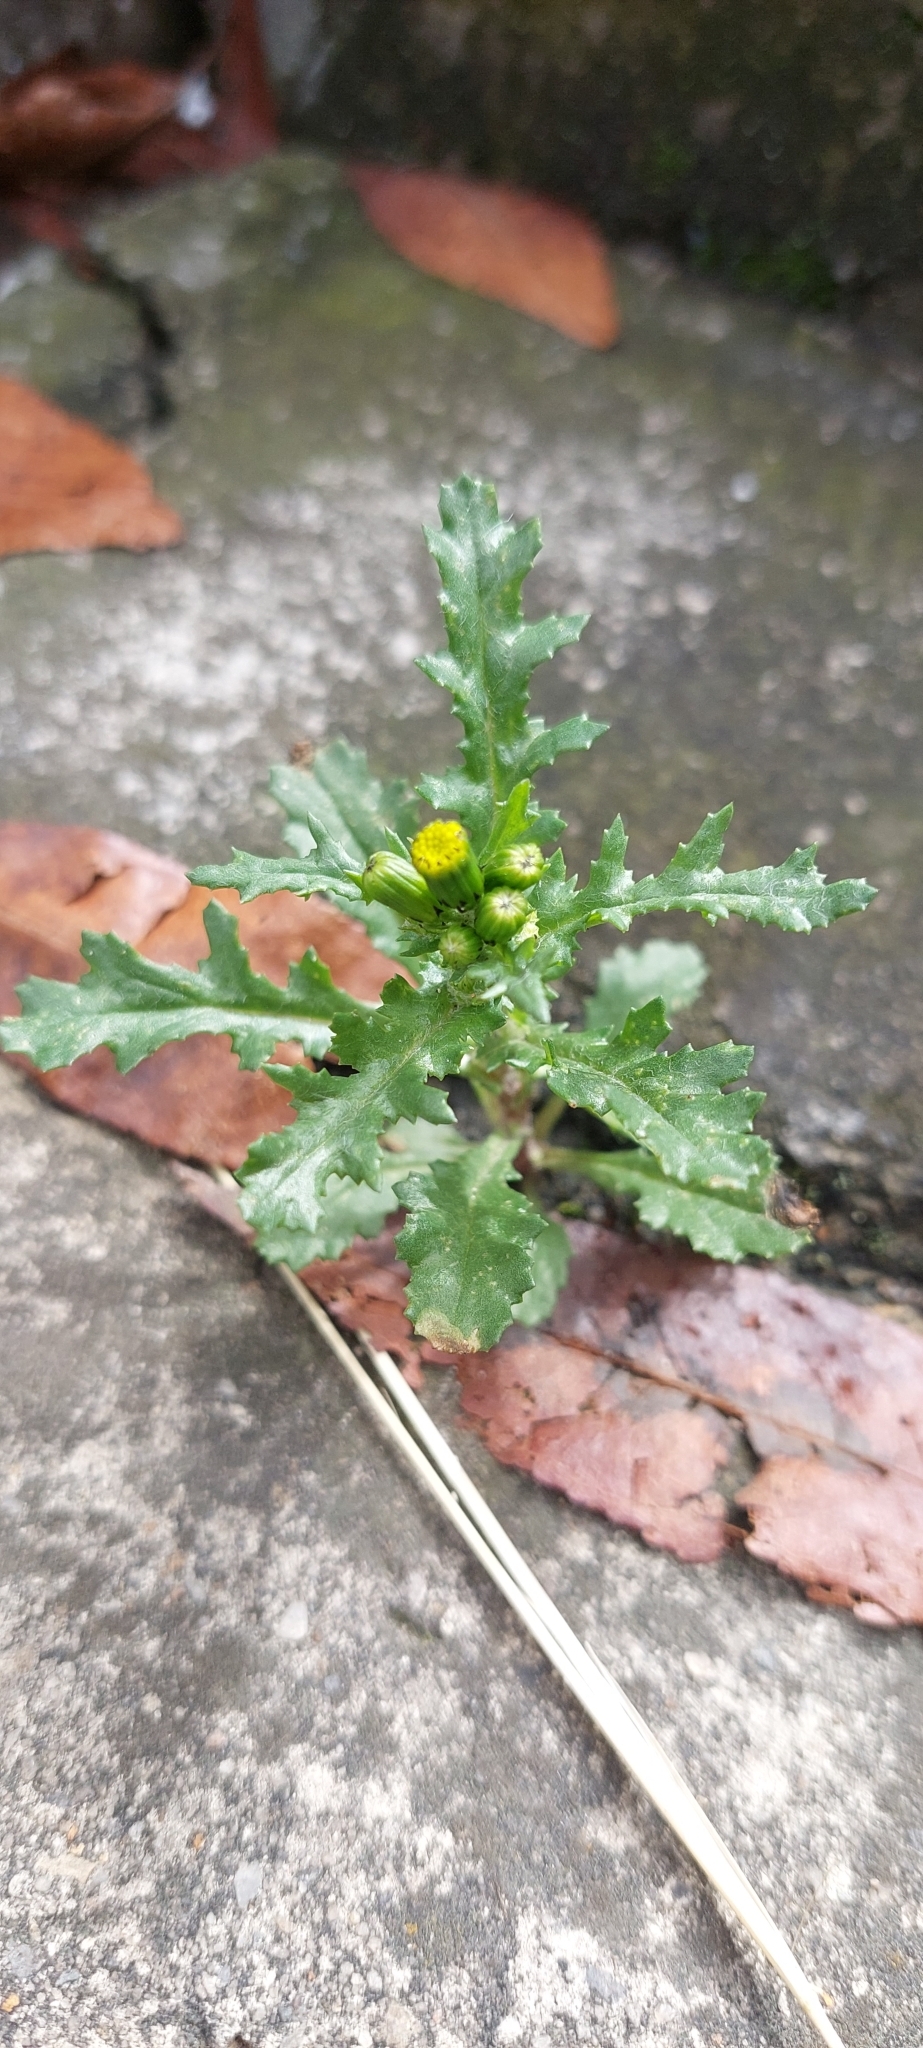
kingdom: Plantae
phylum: Tracheophyta
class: Magnoliopsida
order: Asterales
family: Asteraceae
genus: Senecio
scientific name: Senecio vulgaris
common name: Old-man-in-the-spring
